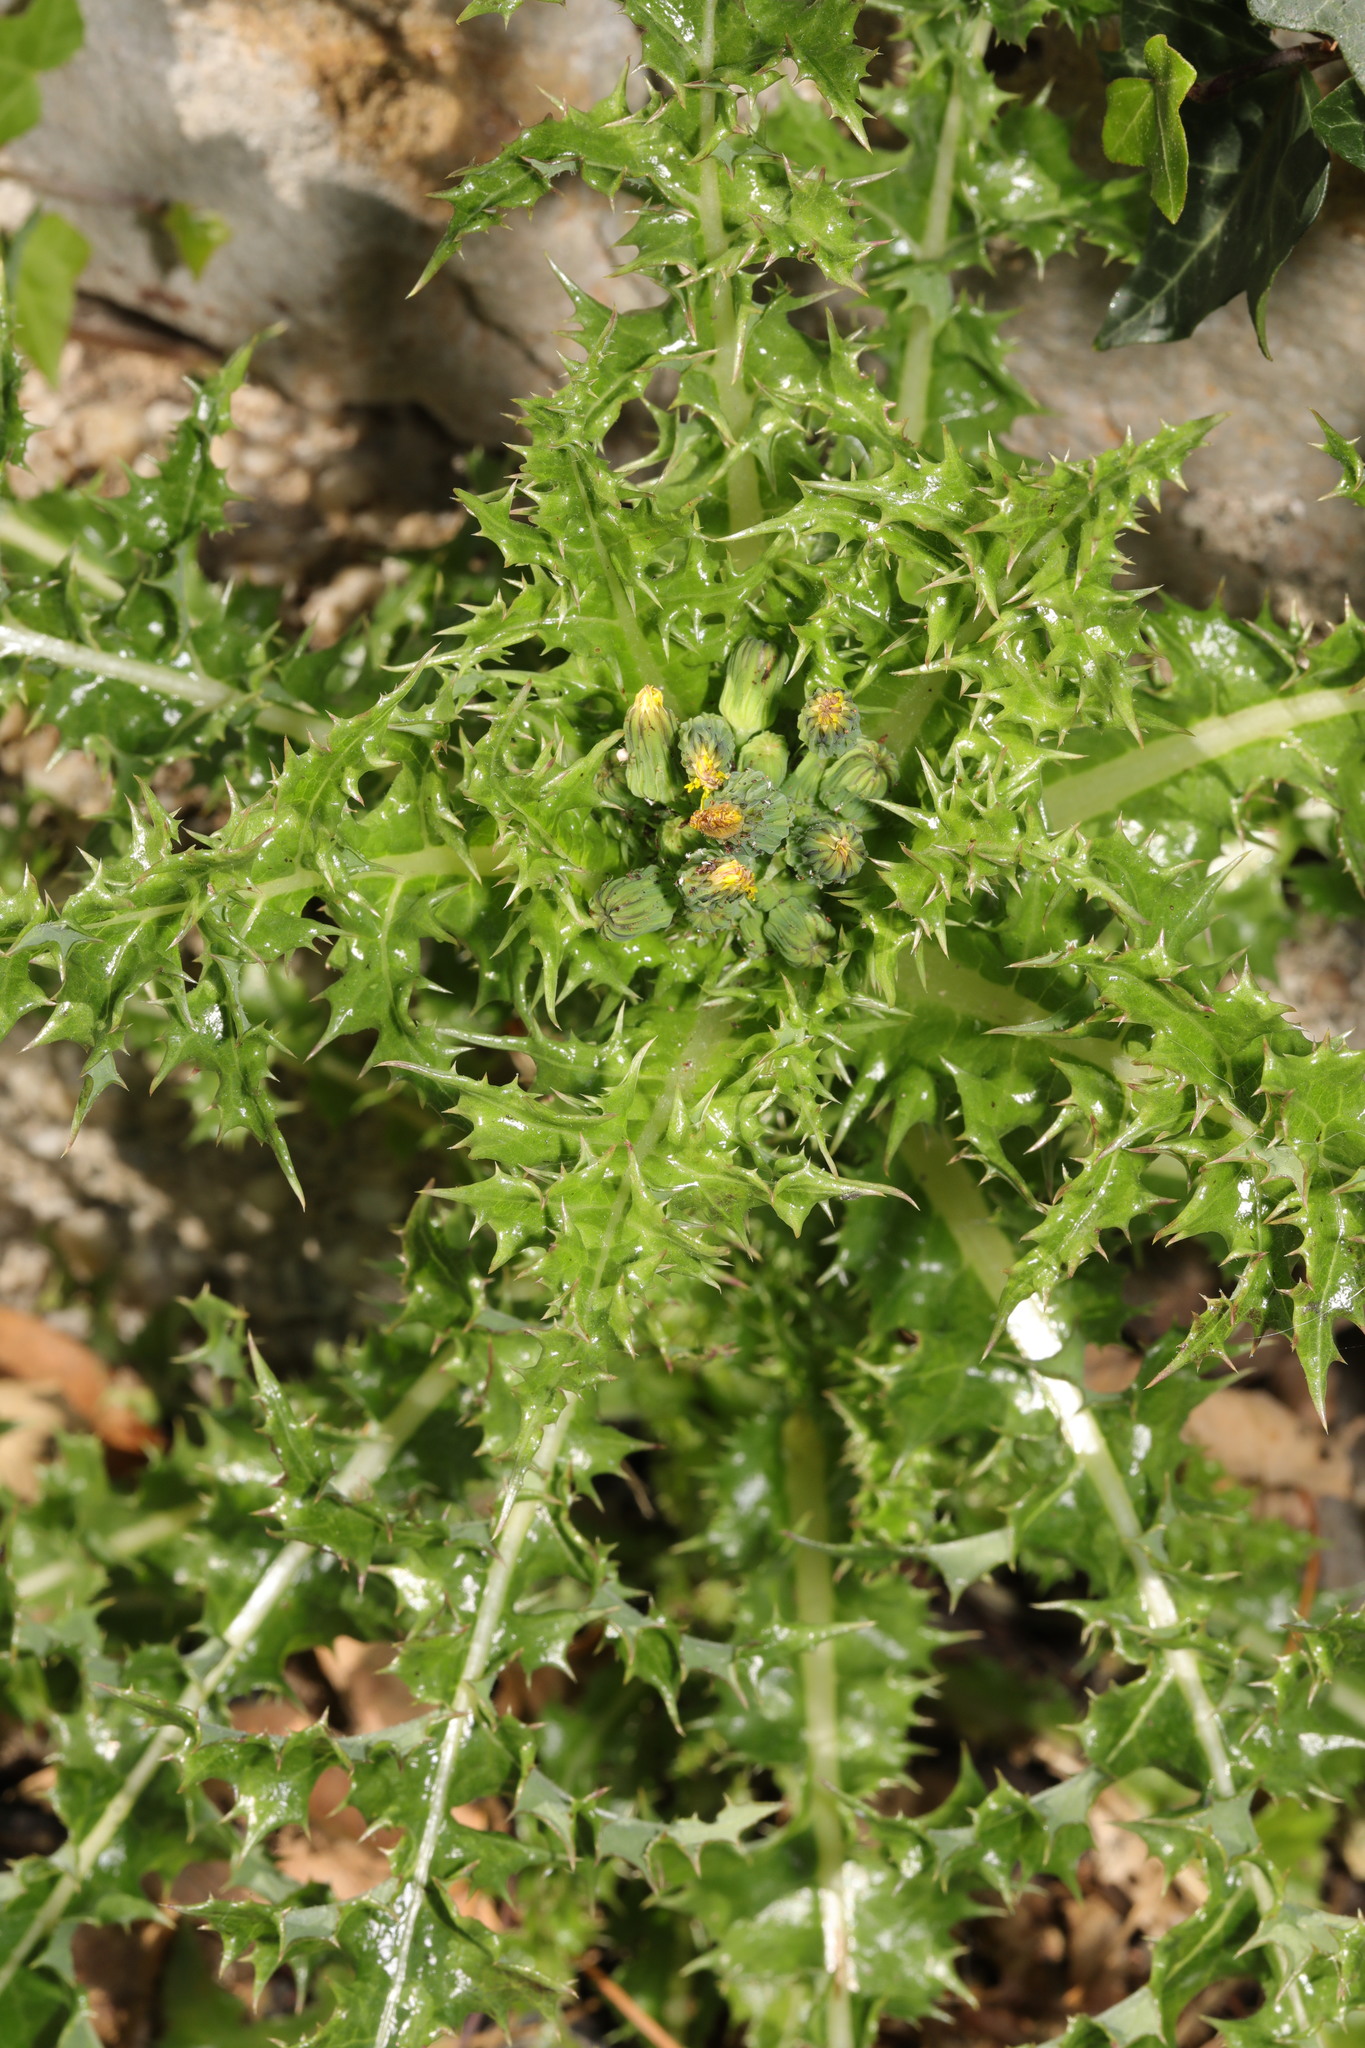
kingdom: Plantae
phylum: Tracheophyta
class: Magnoliopsida
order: Asterales
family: Asteraceae
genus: Sonchus
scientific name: Sonchus asper
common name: Prickly sow-thistle
